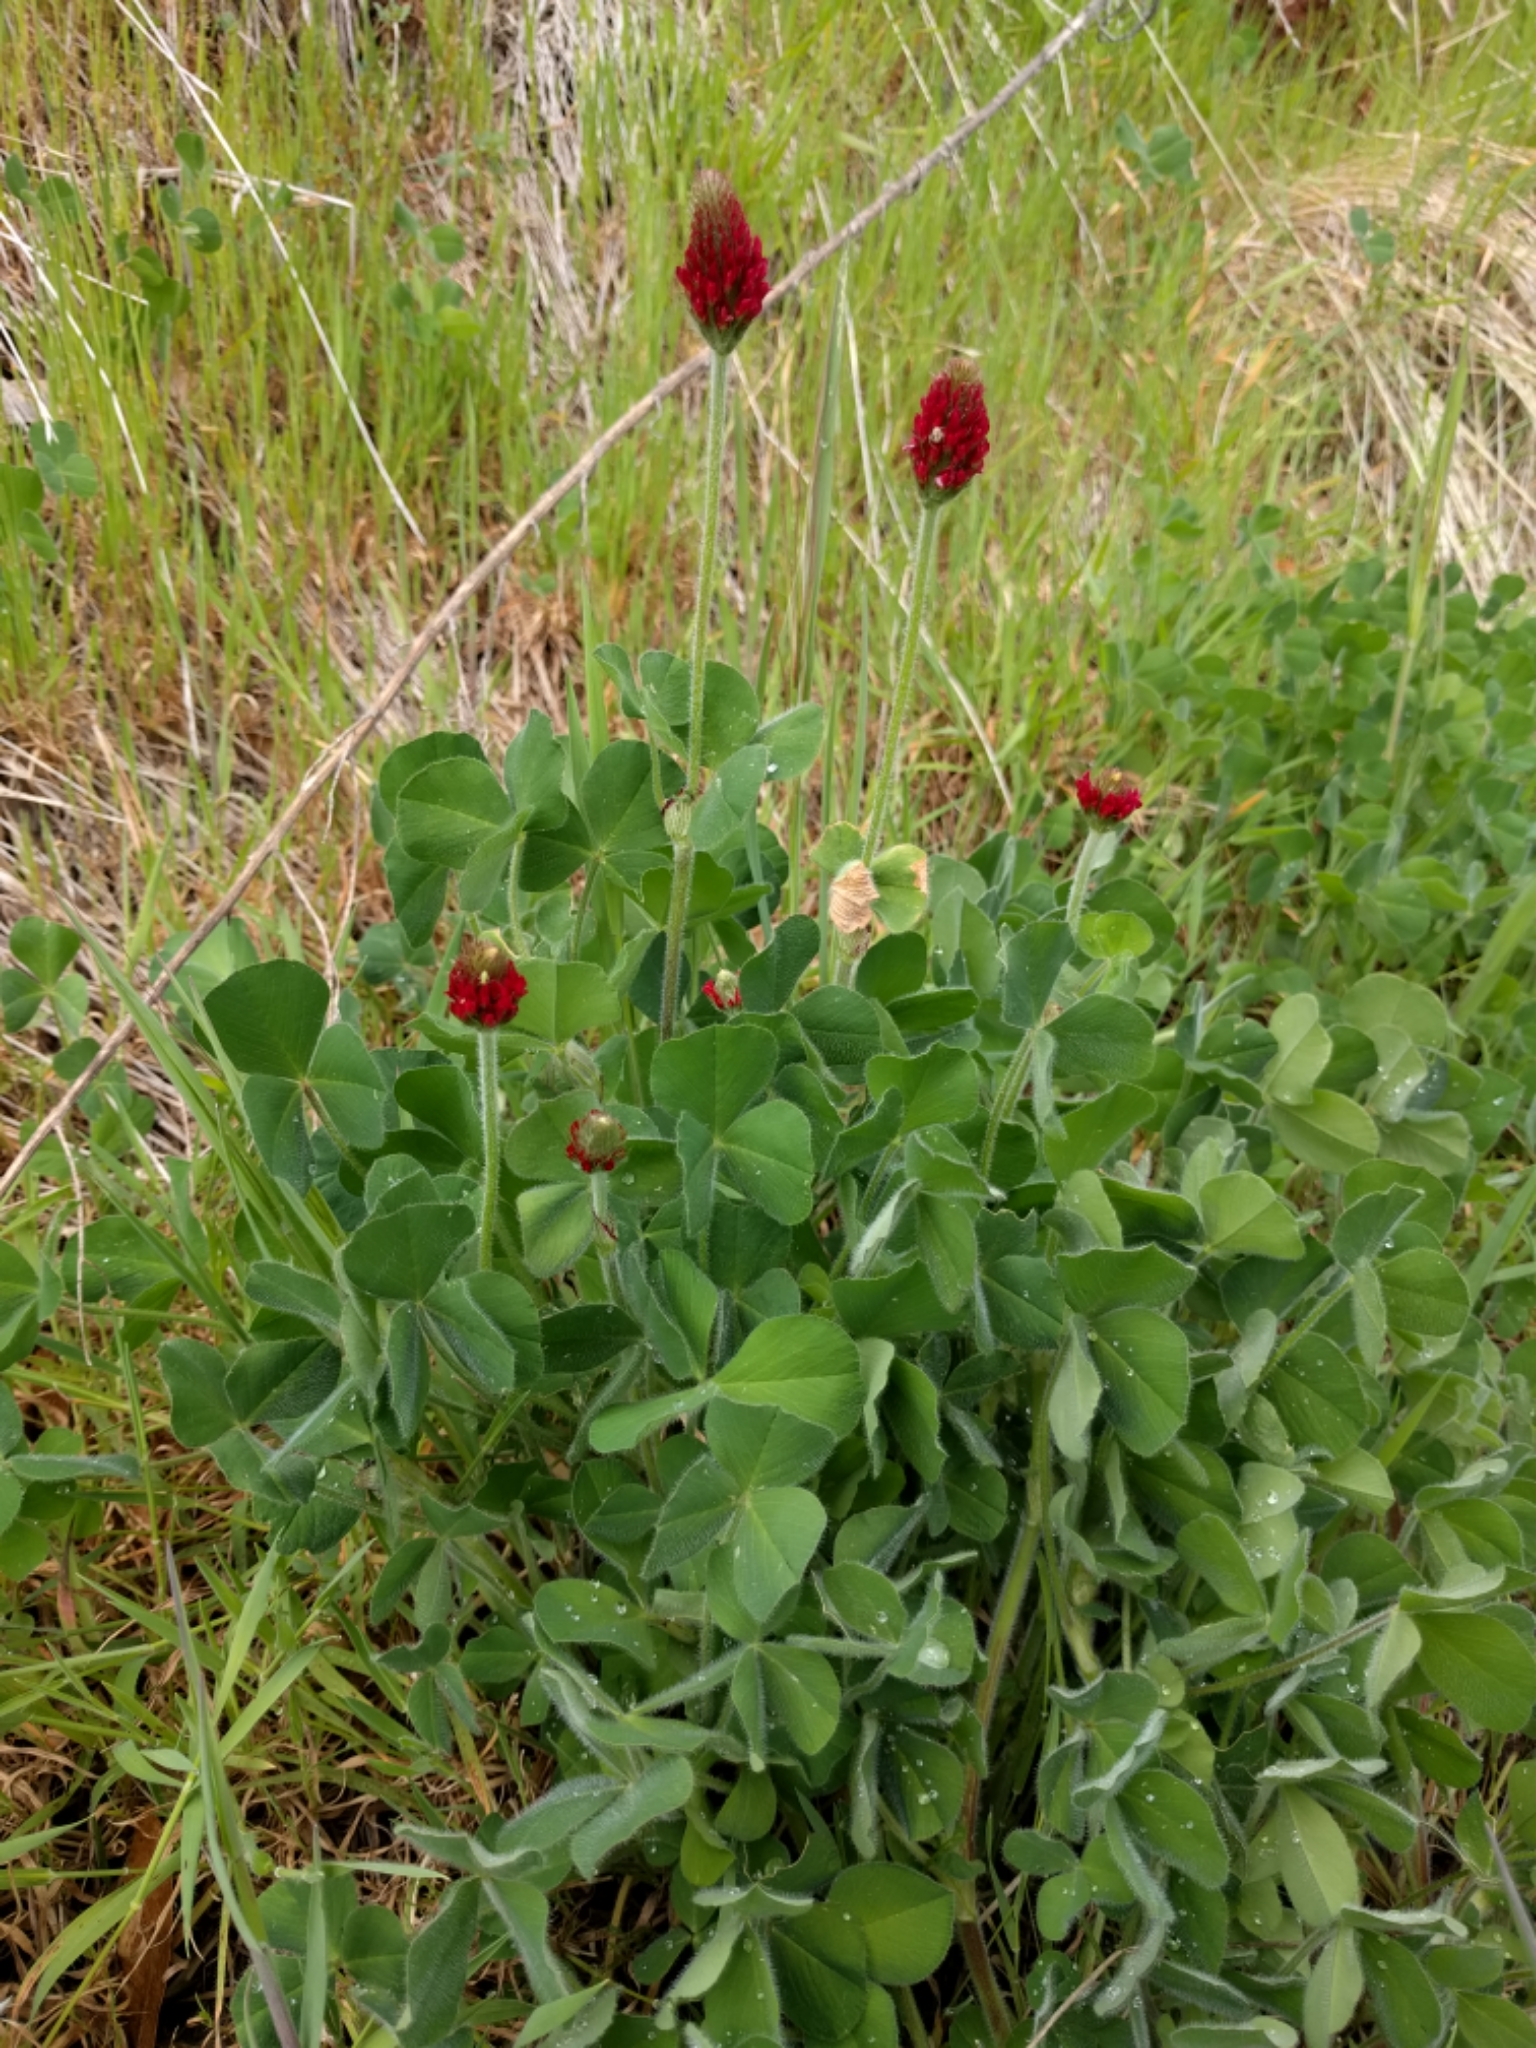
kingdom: Plantae
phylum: Tracheophyta
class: Magnoliopsida
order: Fabales
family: Fabaceae
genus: Trifolium
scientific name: Trifolium incarnatum
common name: Crimson clover
